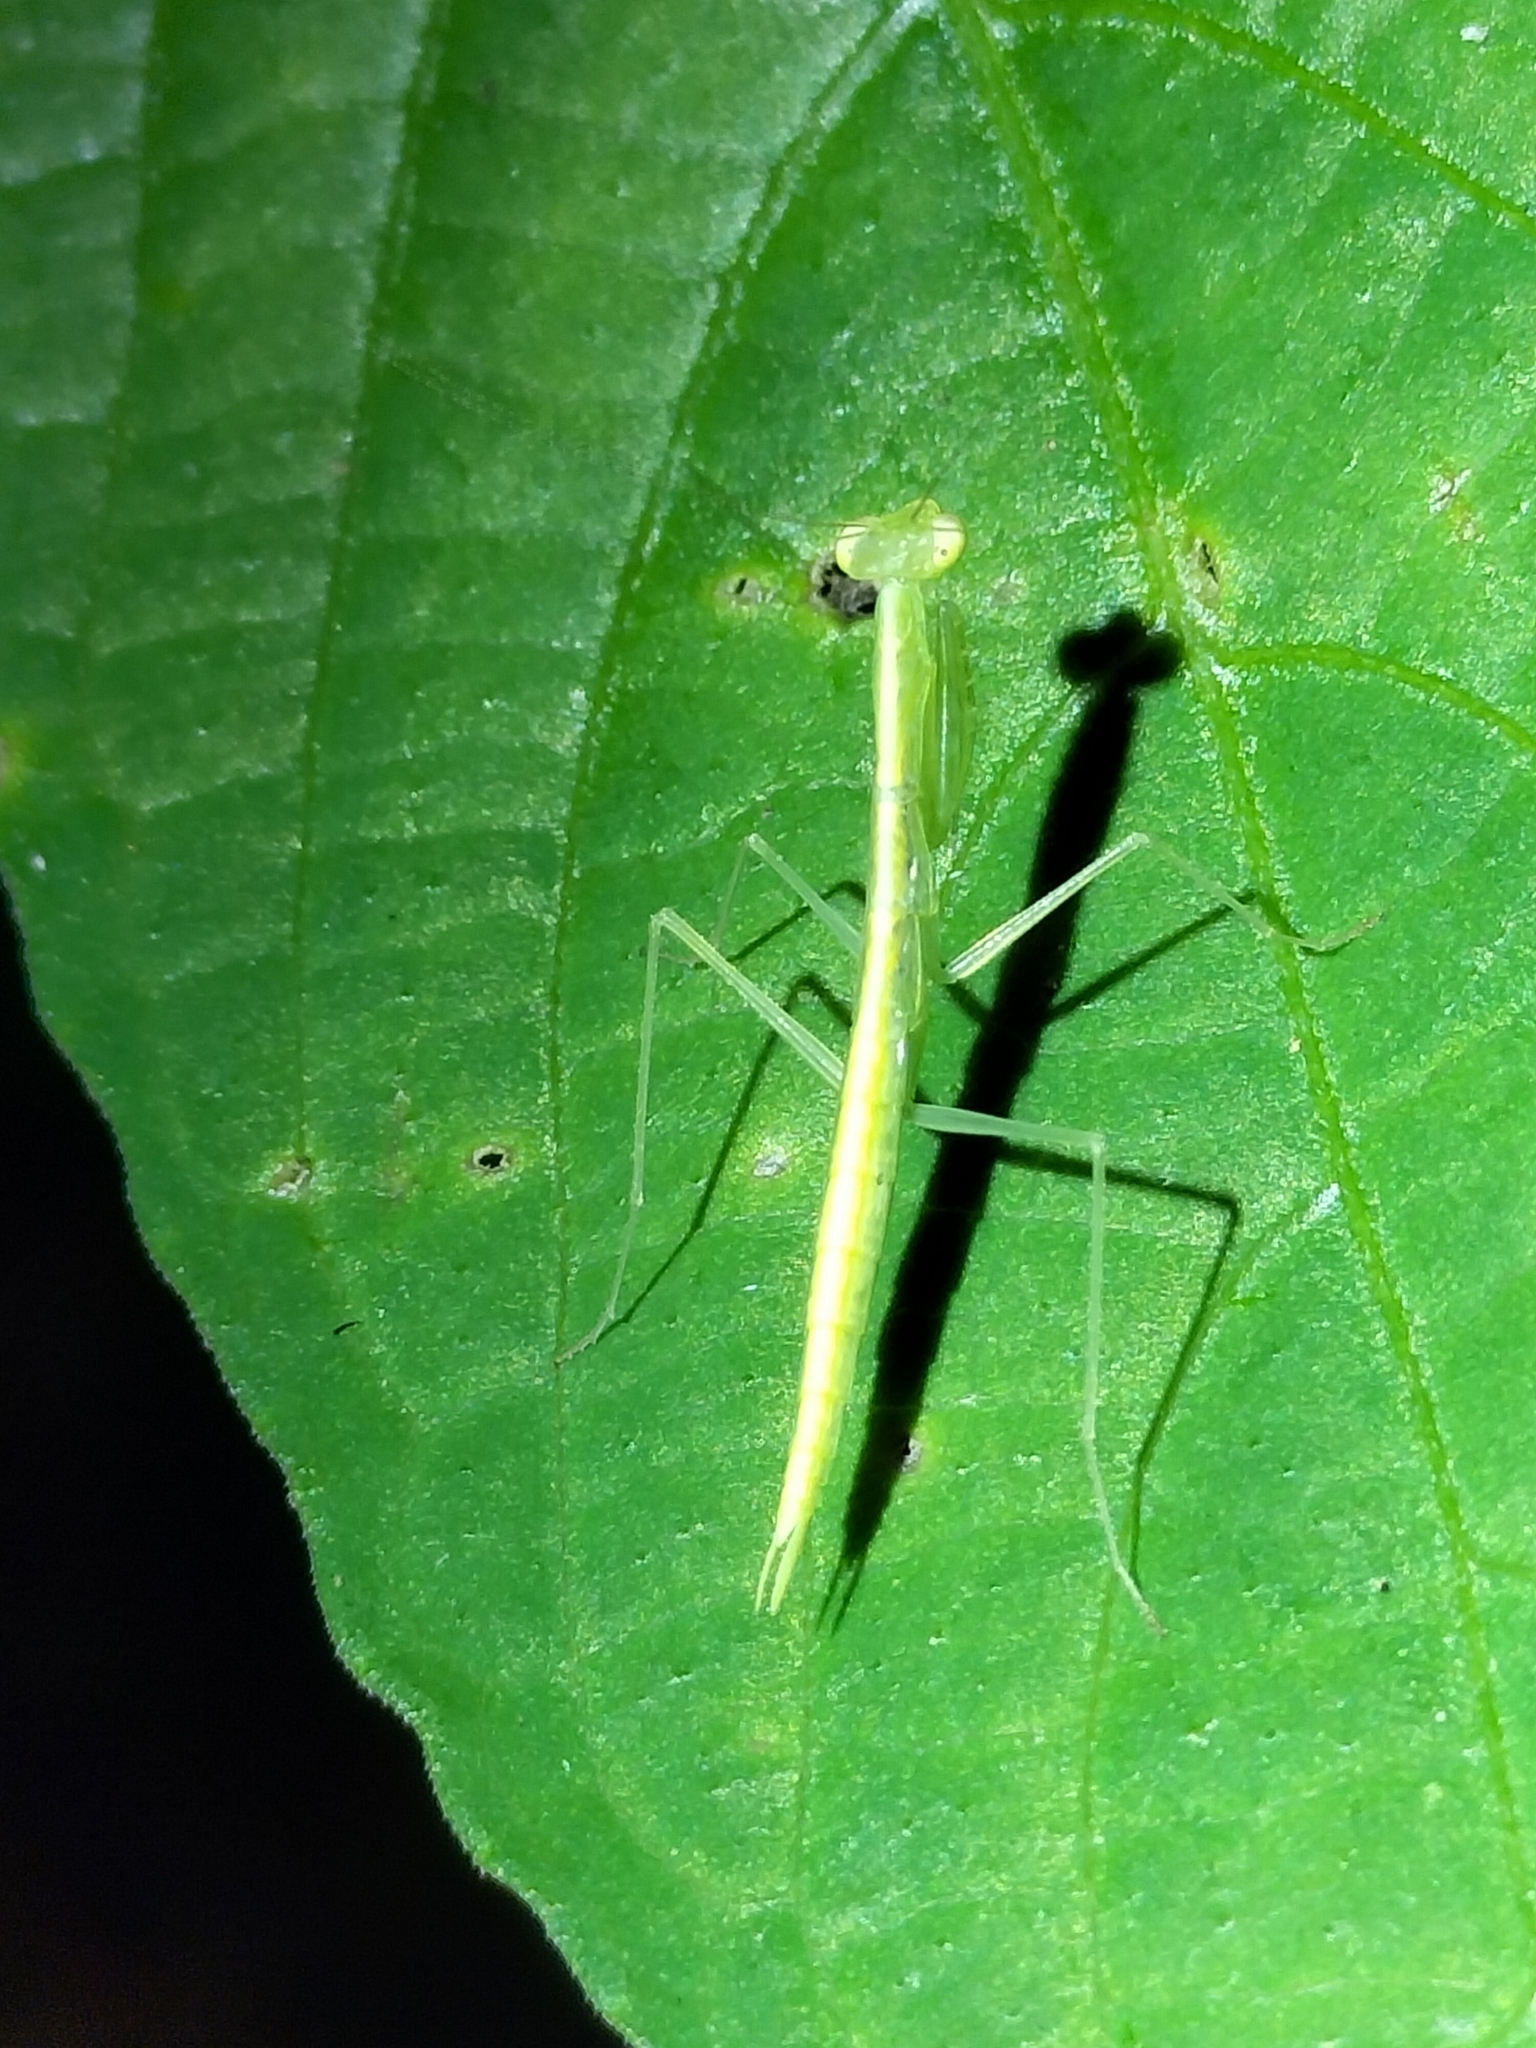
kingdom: Animalia
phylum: Arthropoda
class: Insecta
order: Mantodea
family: Nanomantidae
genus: Kongobatha
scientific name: Kongobatha diademata
